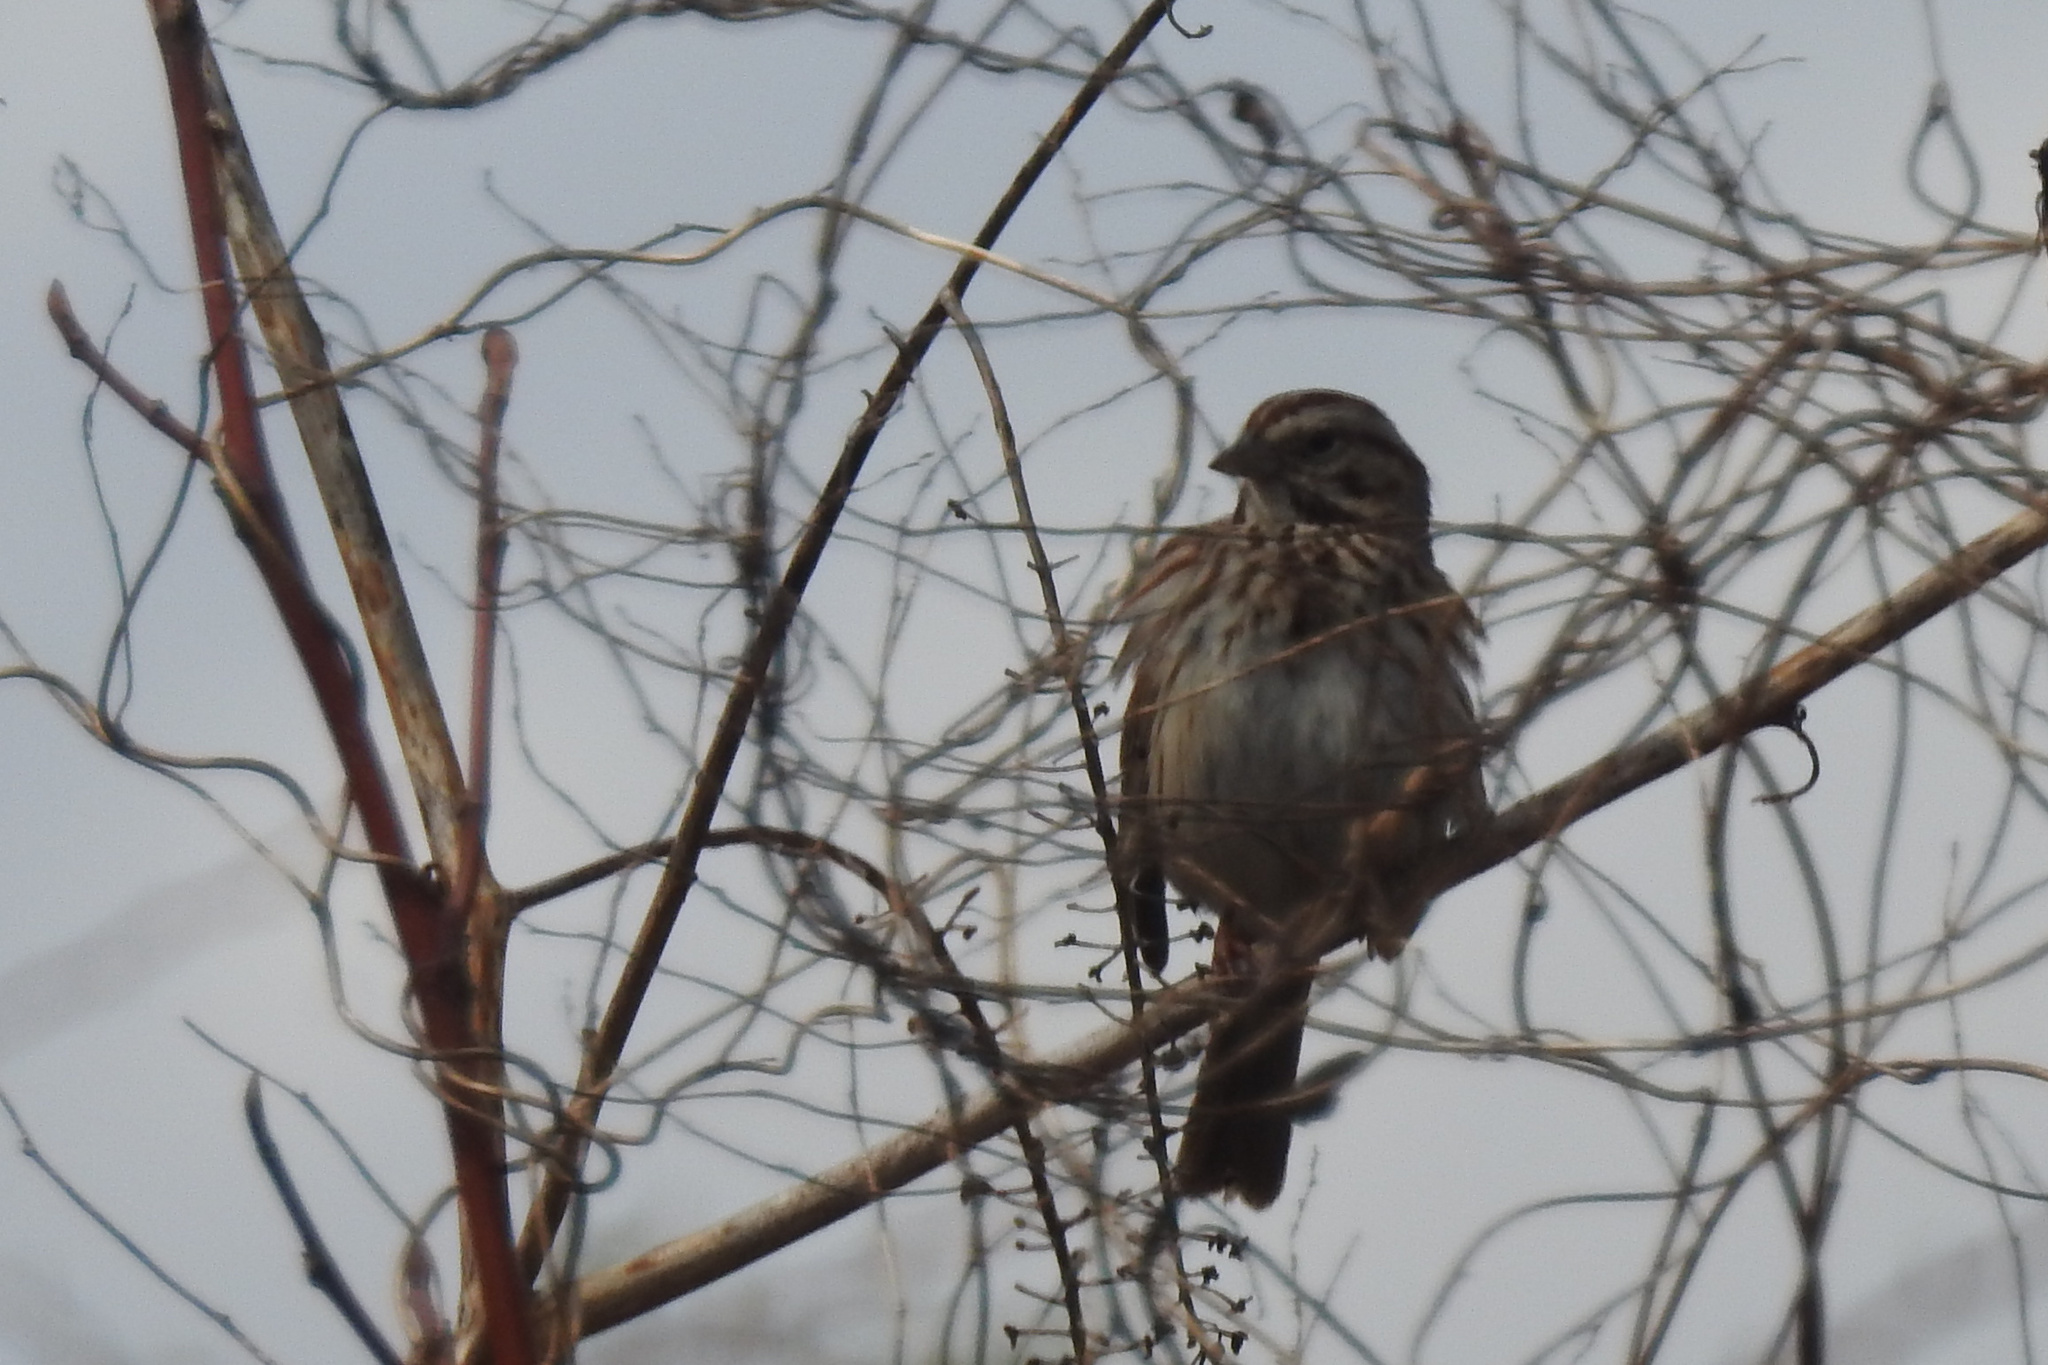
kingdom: Animalia
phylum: Chordata
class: Aves
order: Passeriformes
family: Passerellidae
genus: Melospiza
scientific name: Melospiza melodia
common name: Song sparrow
